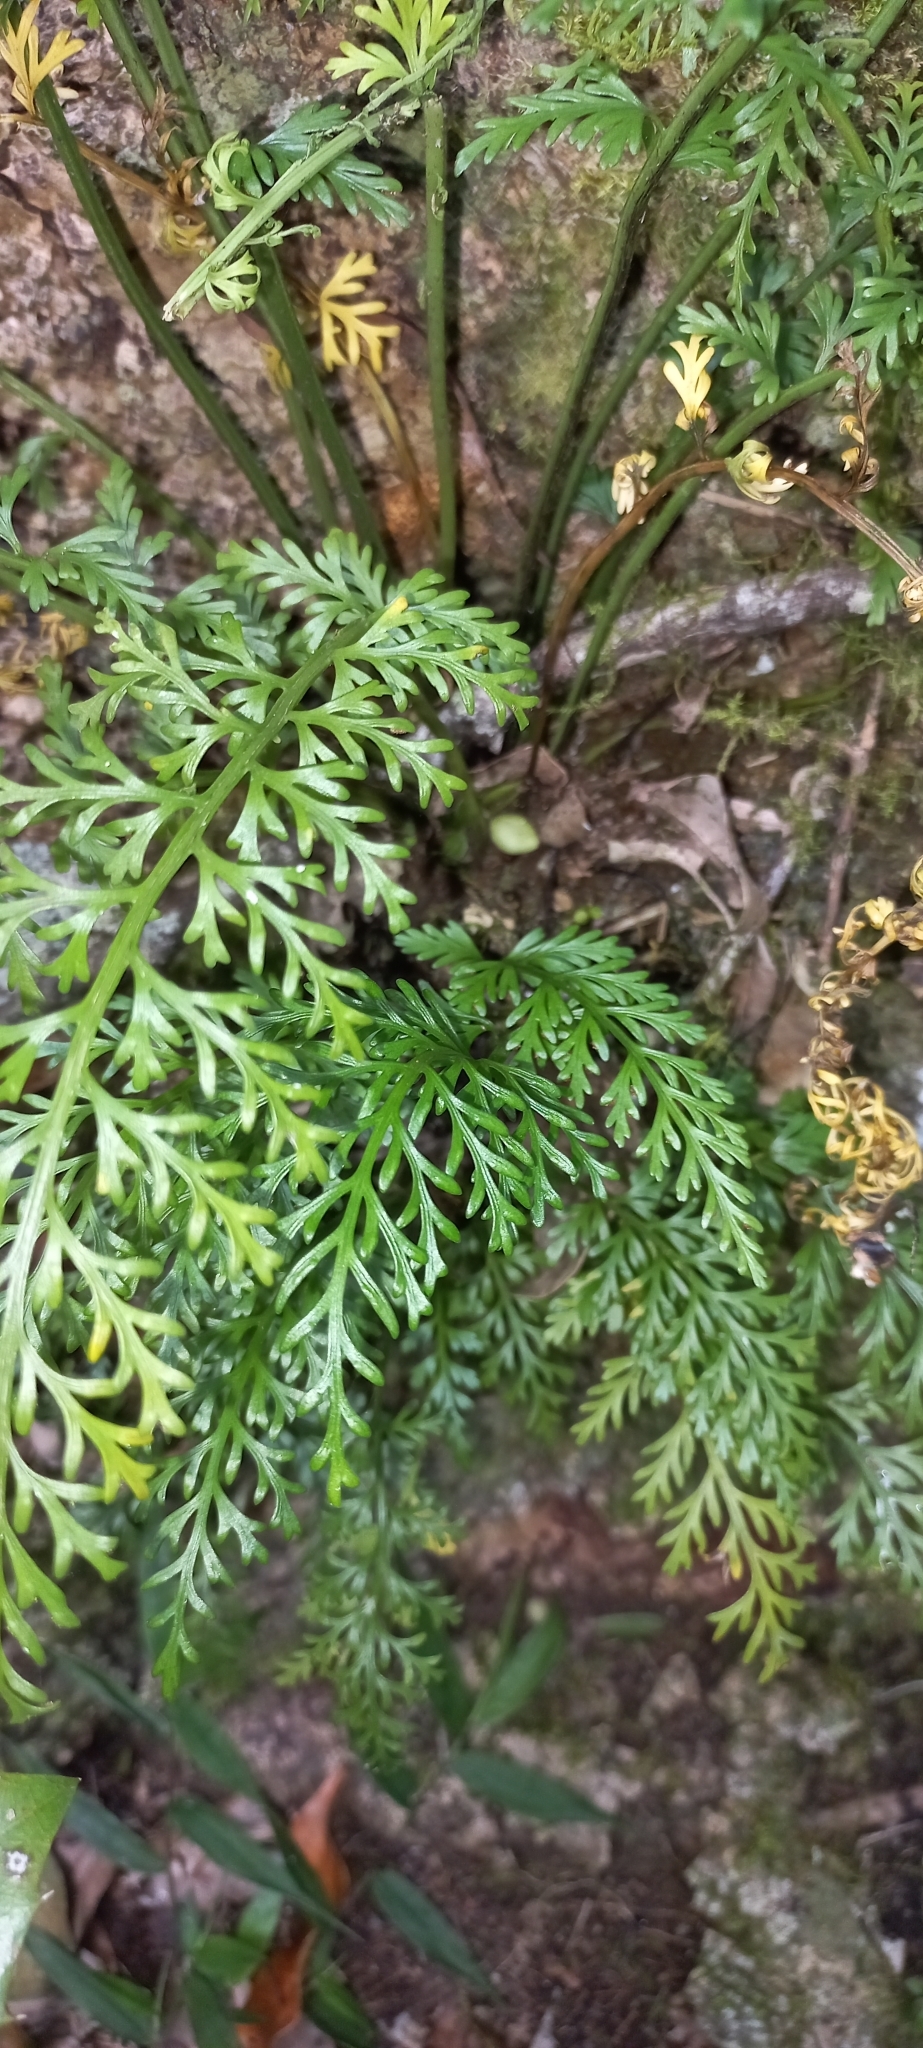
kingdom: Plantae
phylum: Tracheophyta
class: Polypodiopsida
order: Polypodiales
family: Aspleniaceae
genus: Asplenium
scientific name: Asplenium rutifolium
